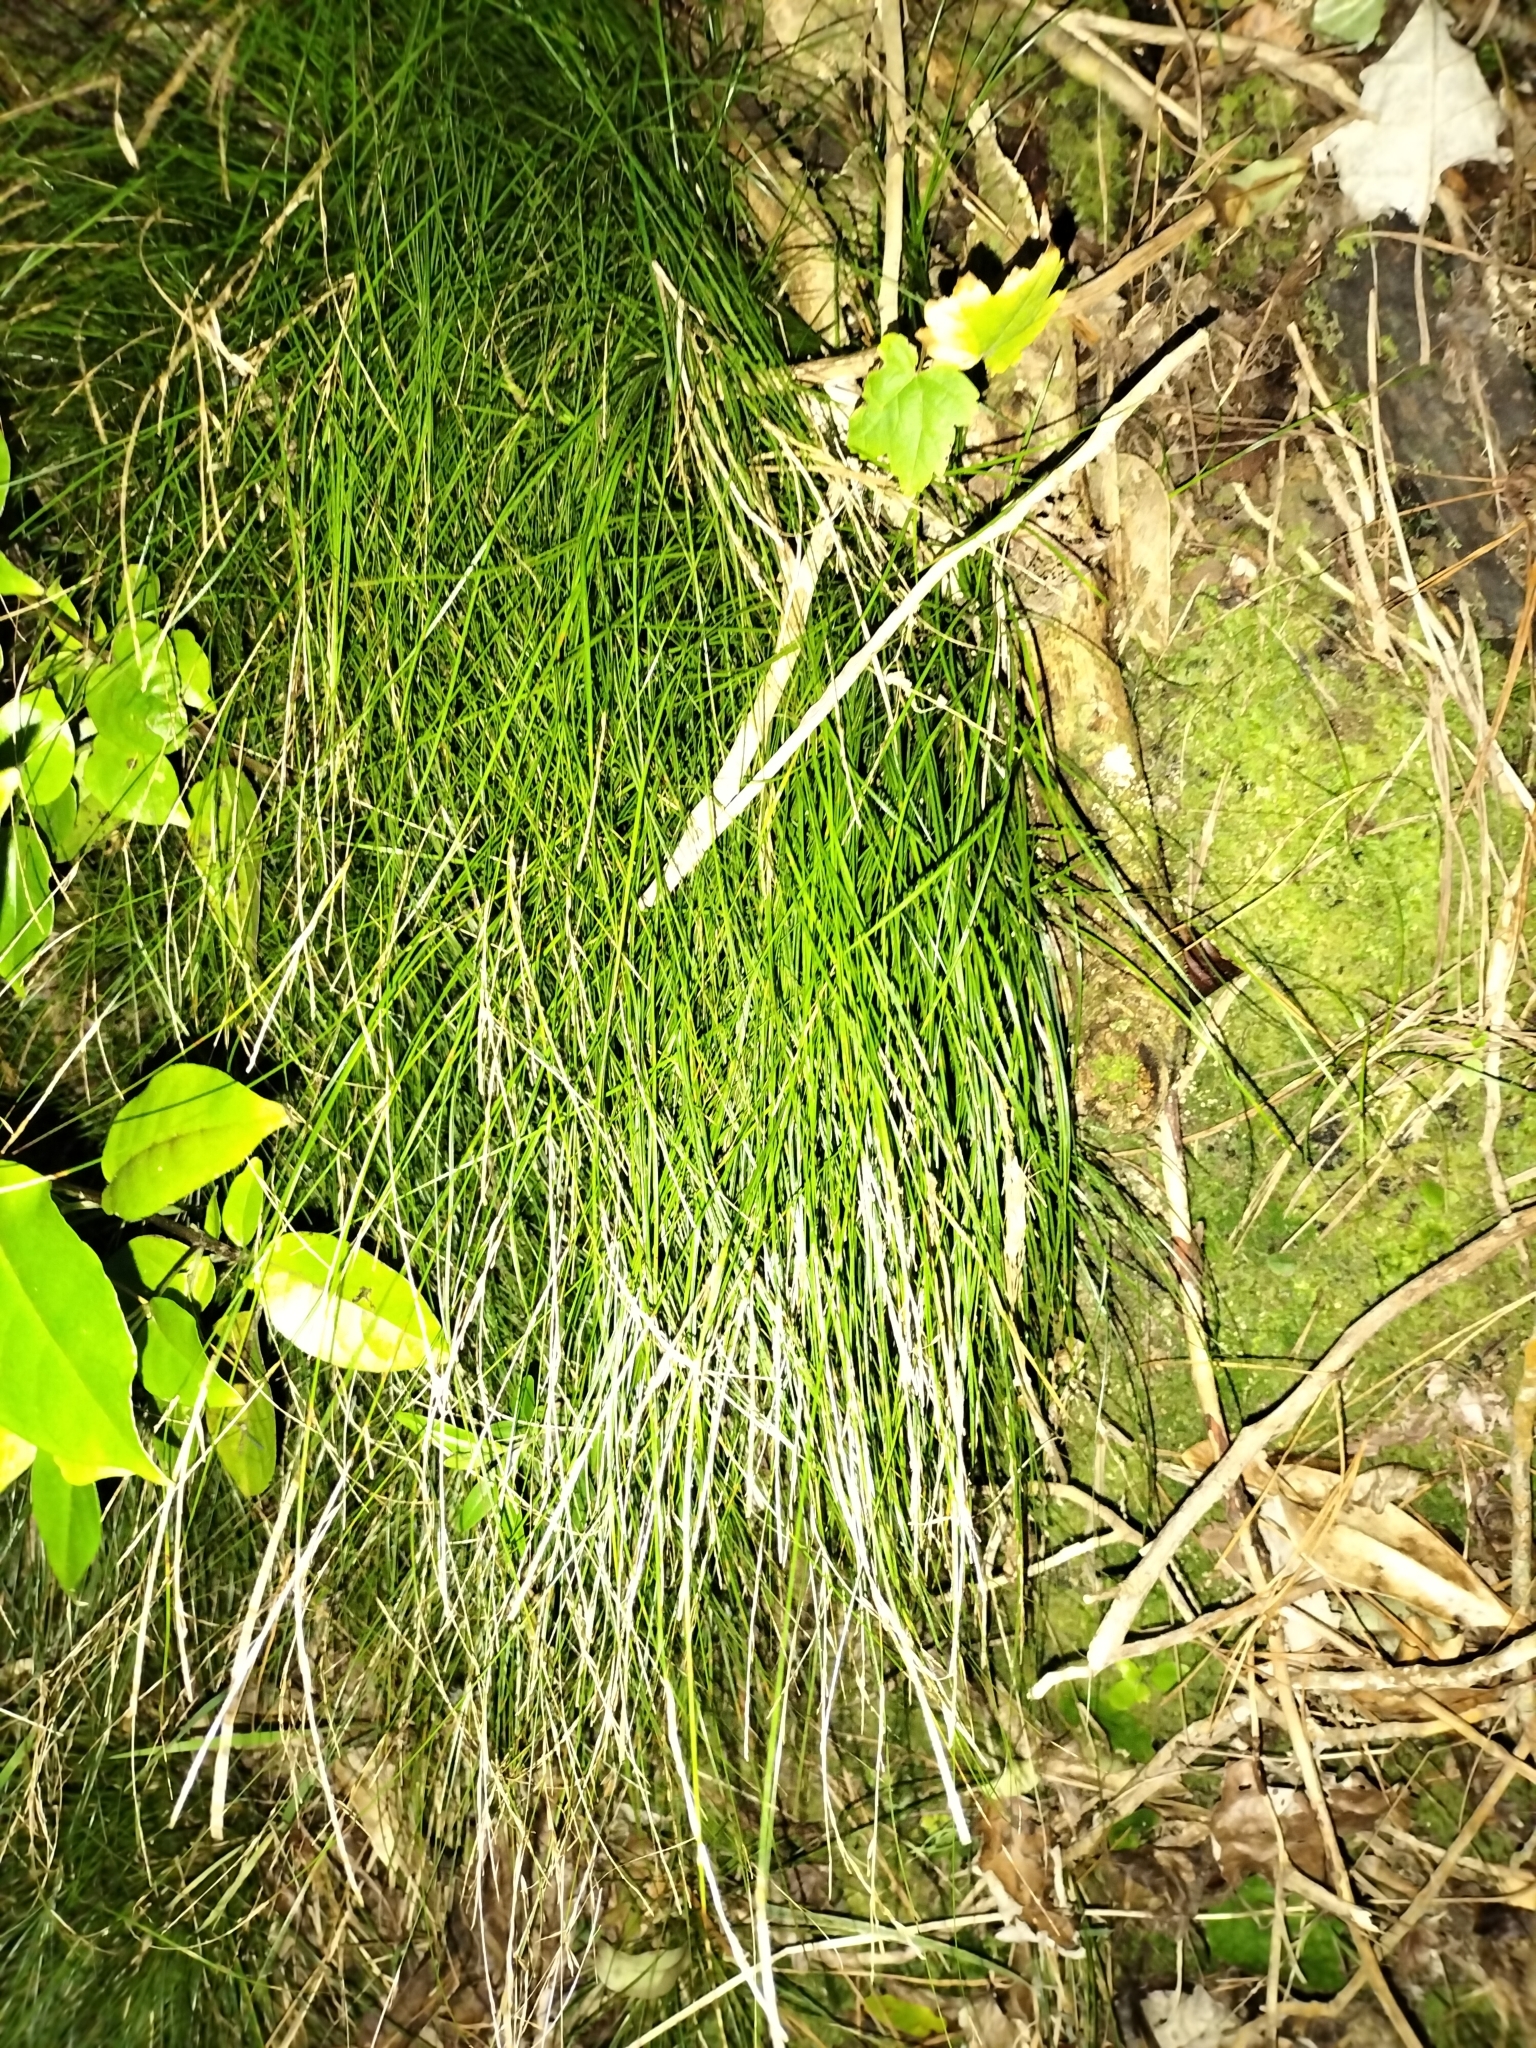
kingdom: Plantae
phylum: Tracheophyta
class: Liliopsida
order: Poales
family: Cyperaceae
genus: Carex
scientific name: Carex banksiana
